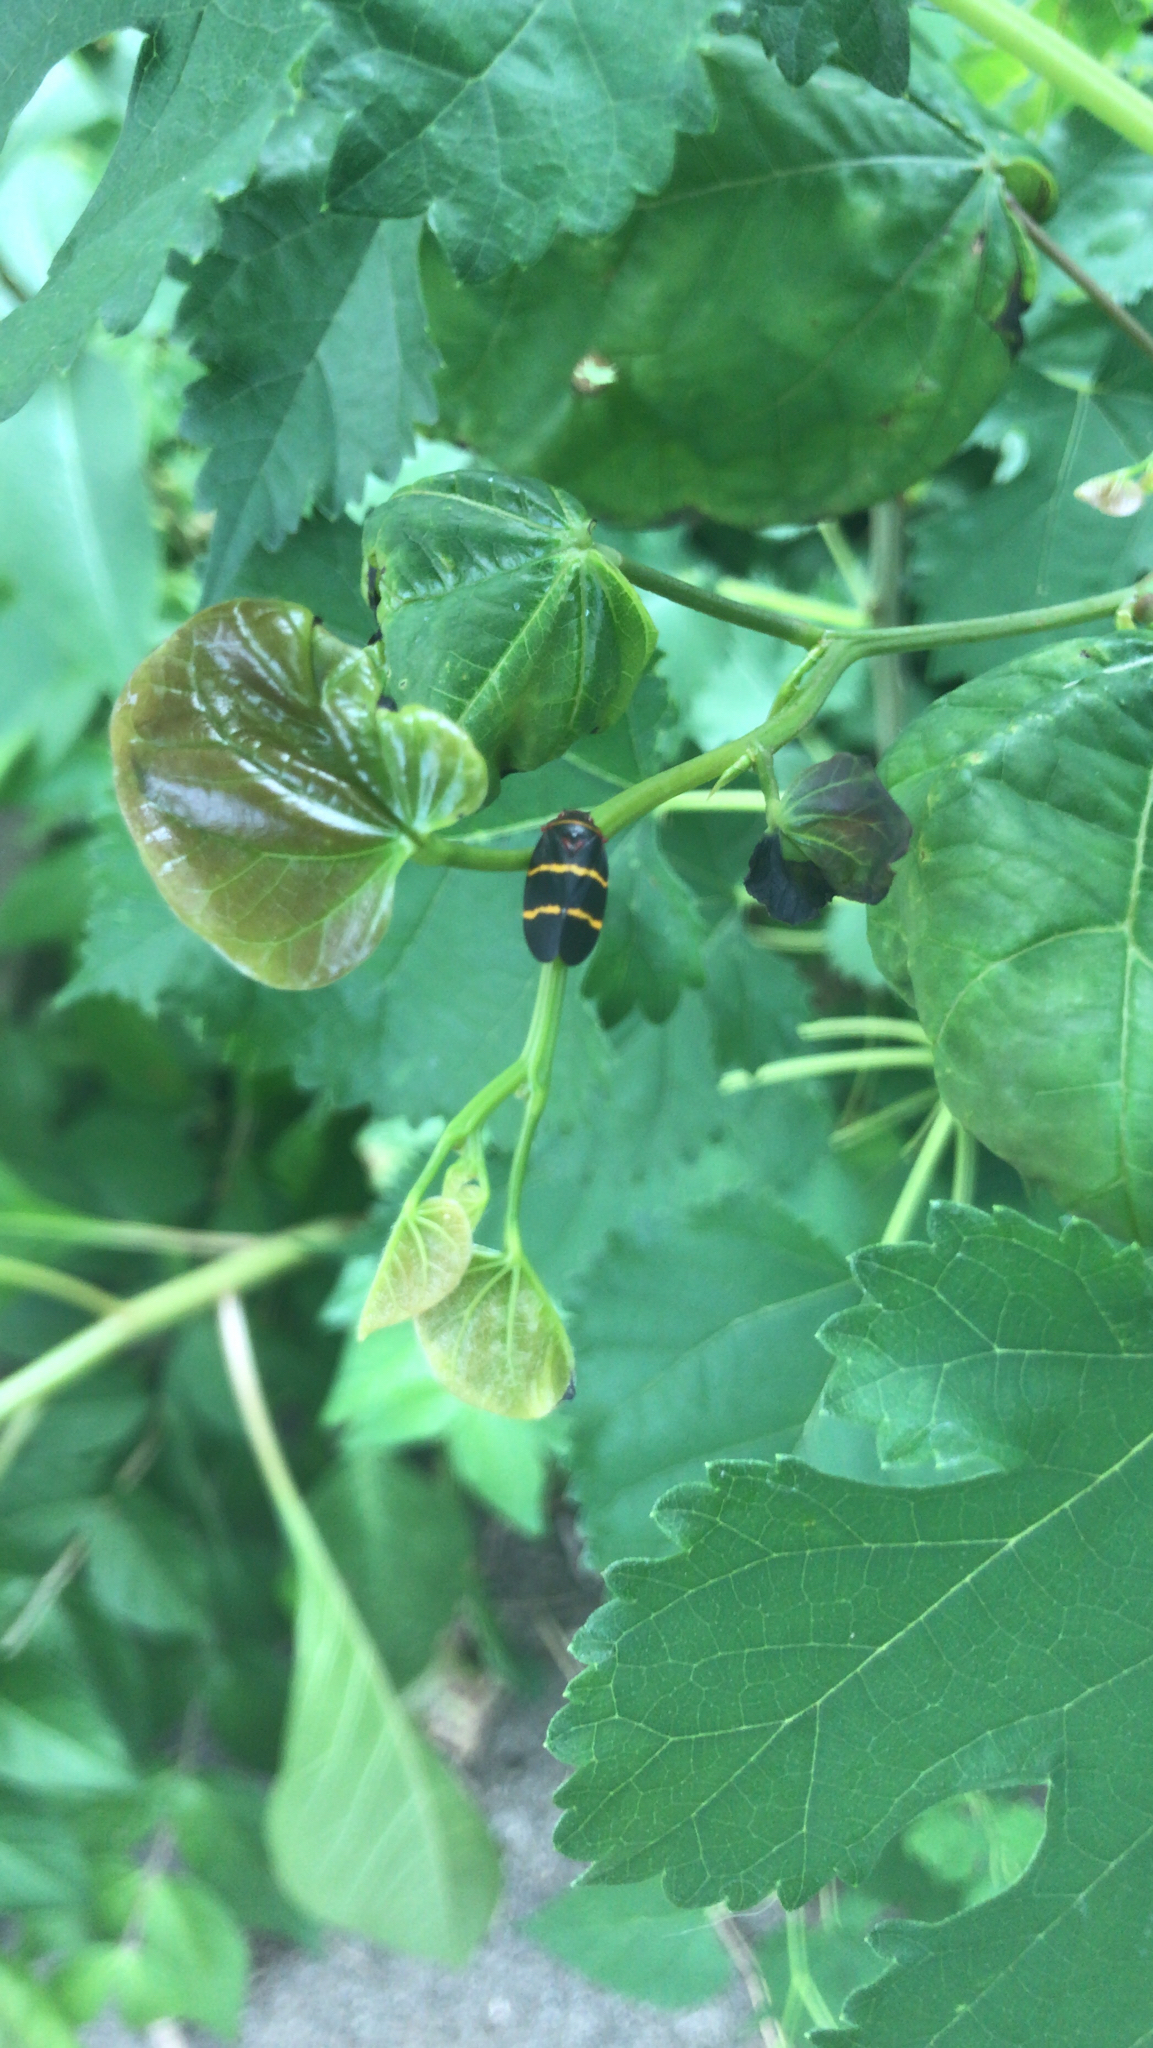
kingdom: Animalia
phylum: Arthropoda
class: Insecta
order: Hemiptera
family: Cercopidae
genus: Prosapia
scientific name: Prosapia bicincta
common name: Twolined spittlebug
